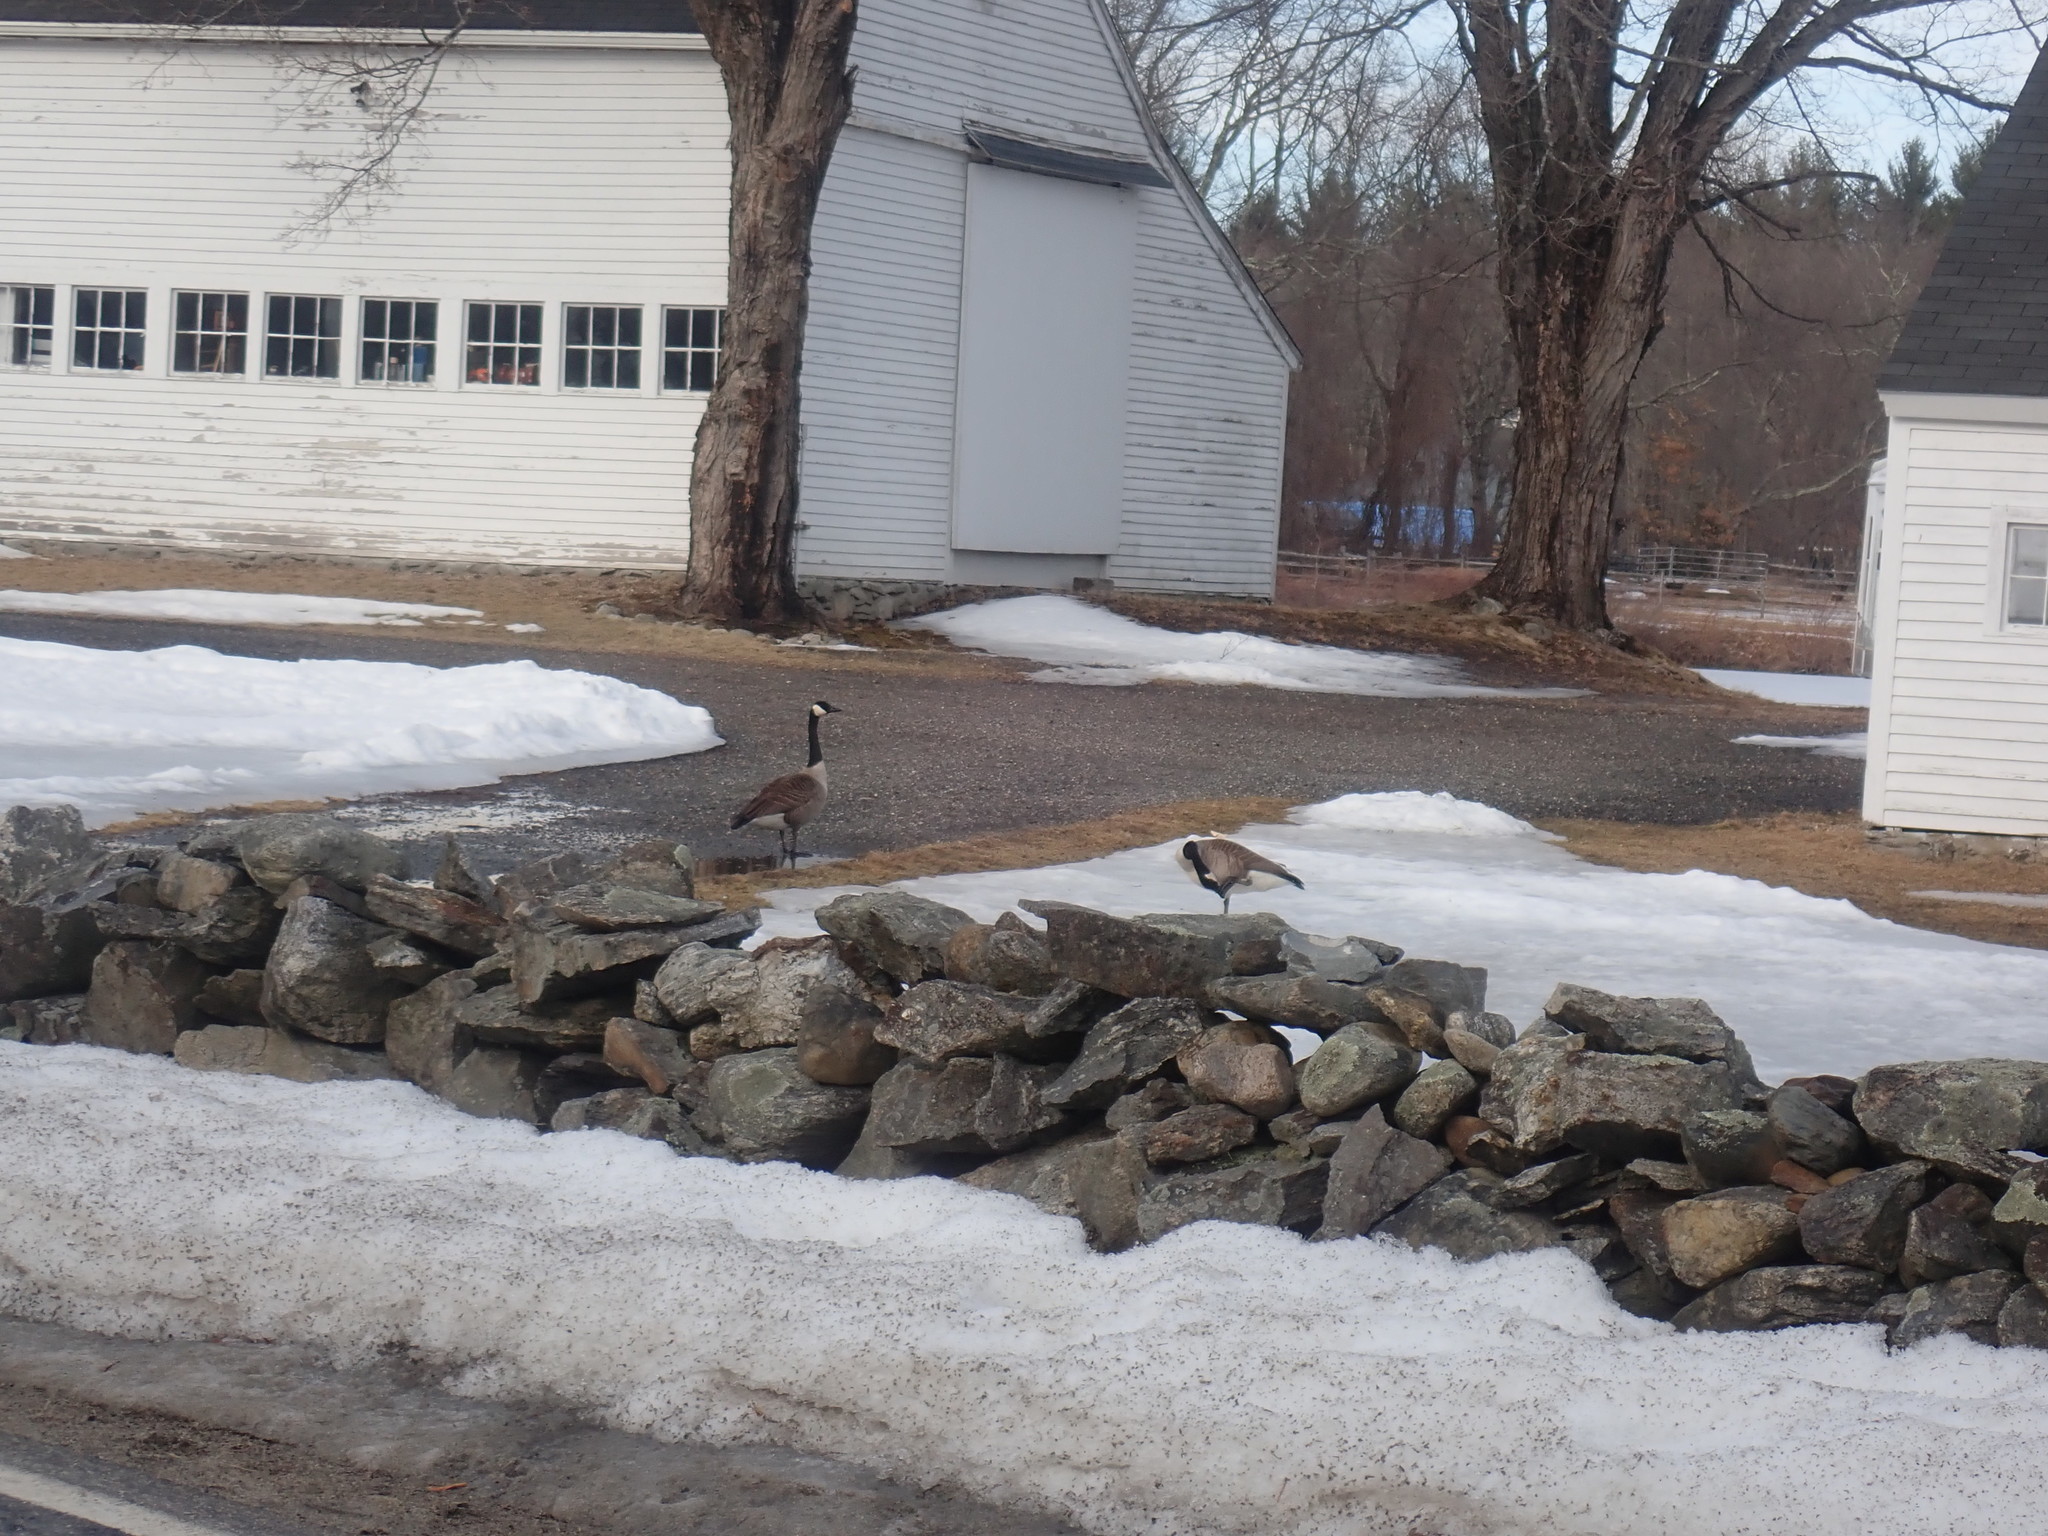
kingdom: Animalia
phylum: Chordata
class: Aves
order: Anseriformes
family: Anatidae
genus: Branta
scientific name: Branta canadensis
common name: Canada goose
